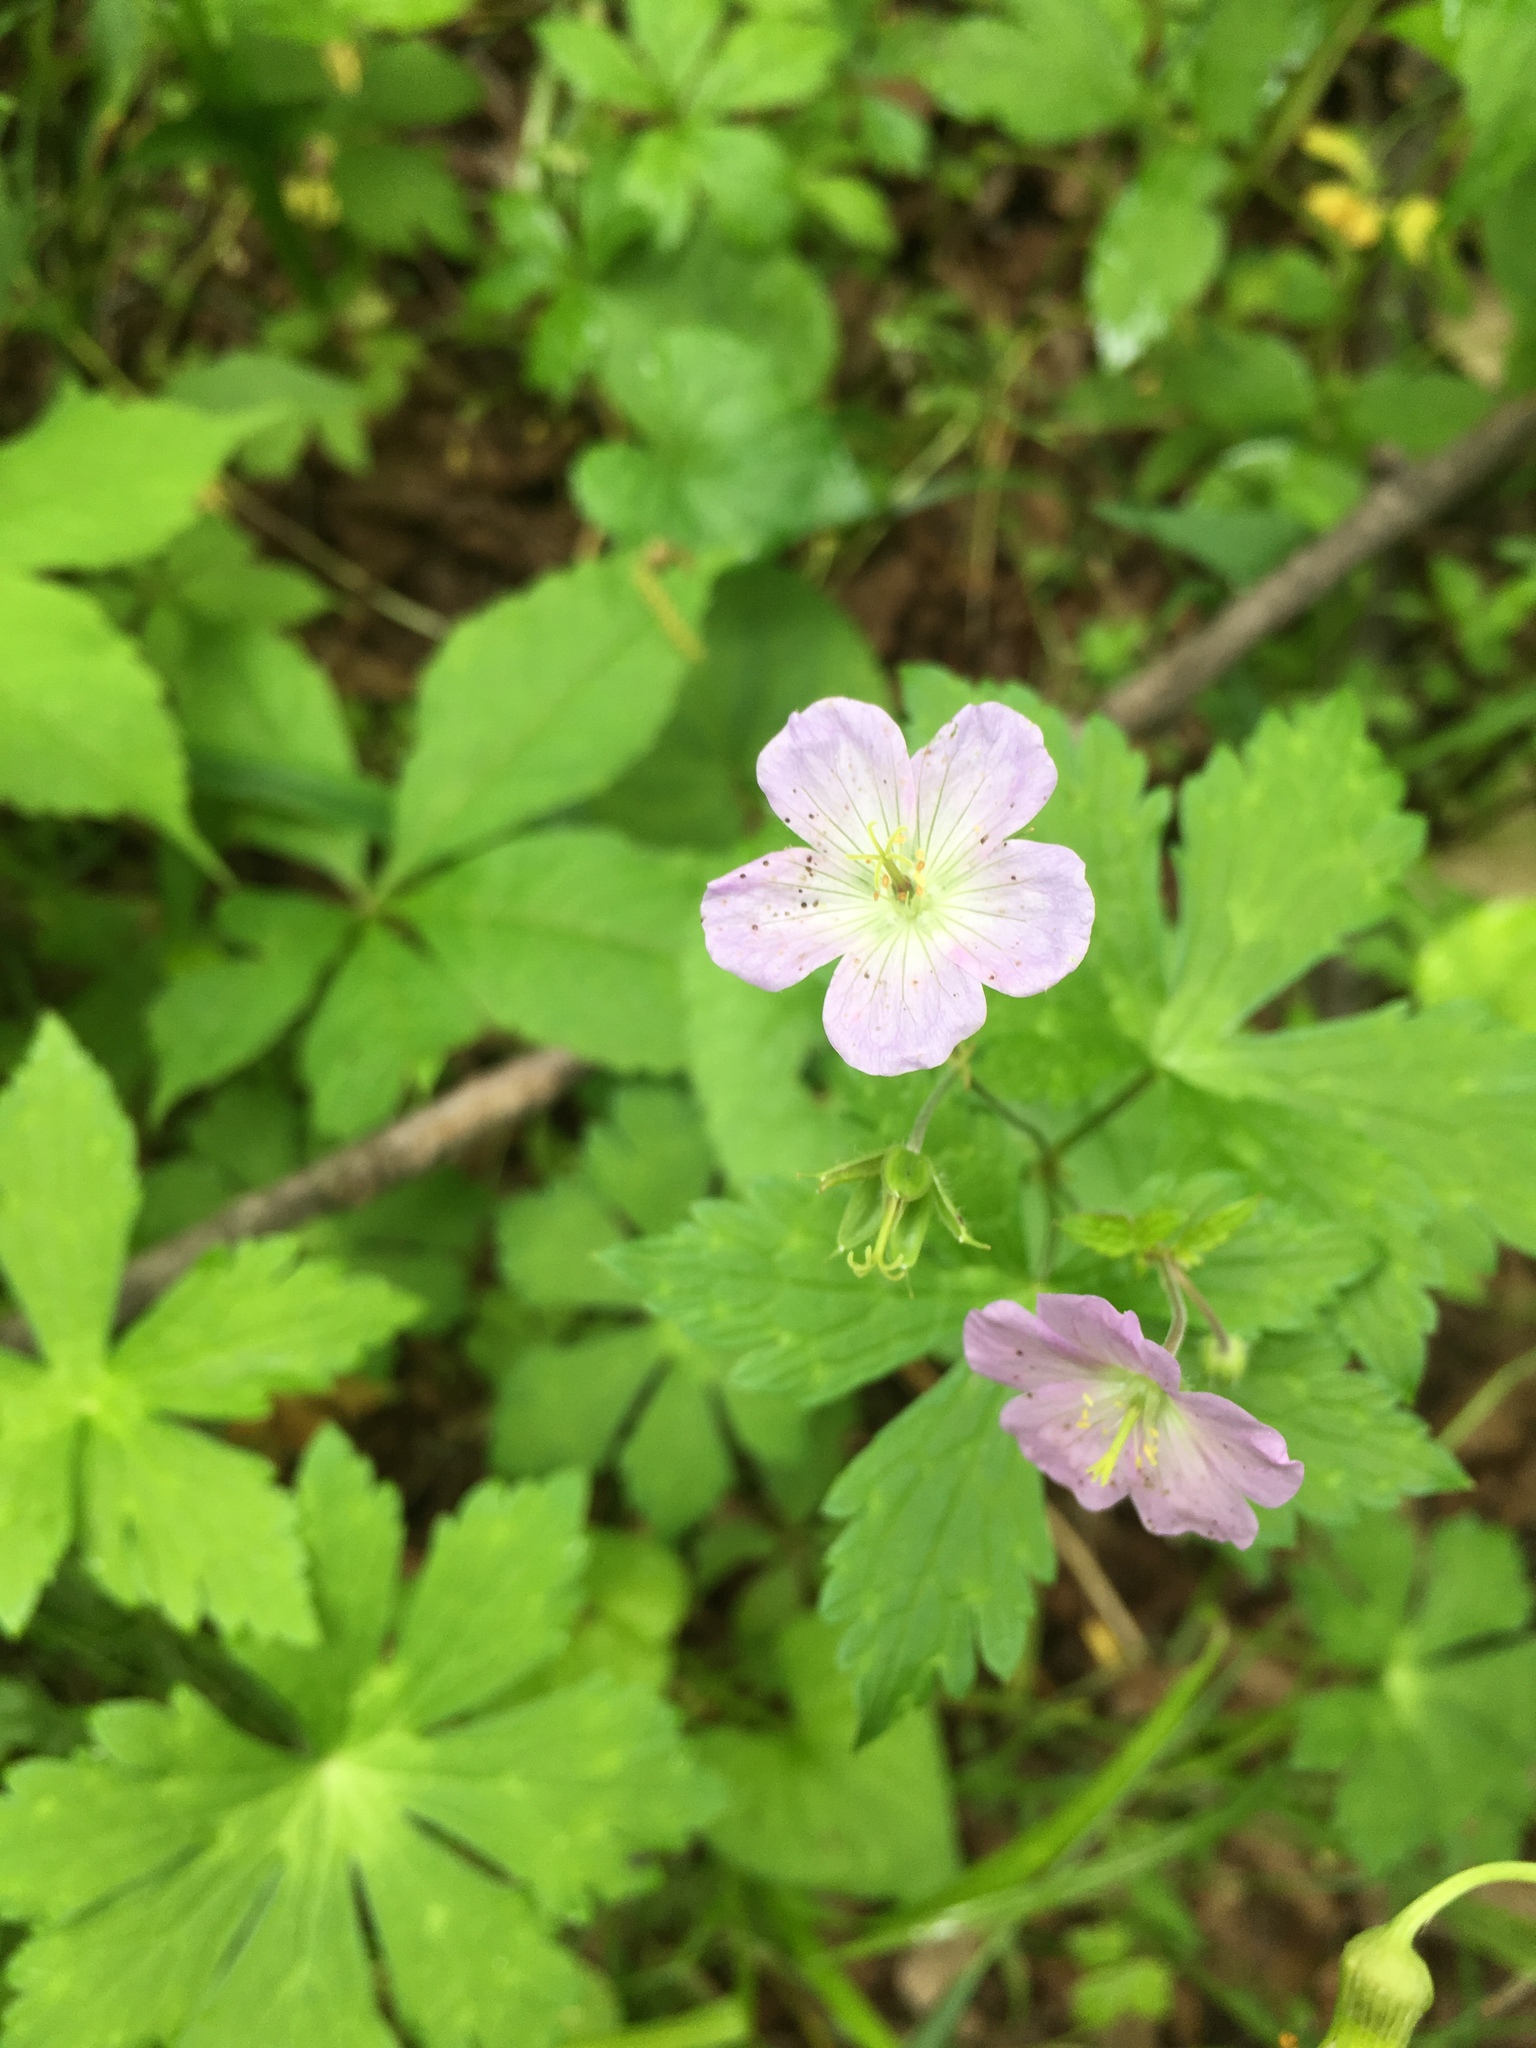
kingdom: Plantae
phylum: Tracheophyta
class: Magnoliopsida
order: Geraniales
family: Geraniaceae
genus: Geranium
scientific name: Geranium maculatum
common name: Spotted geranium
